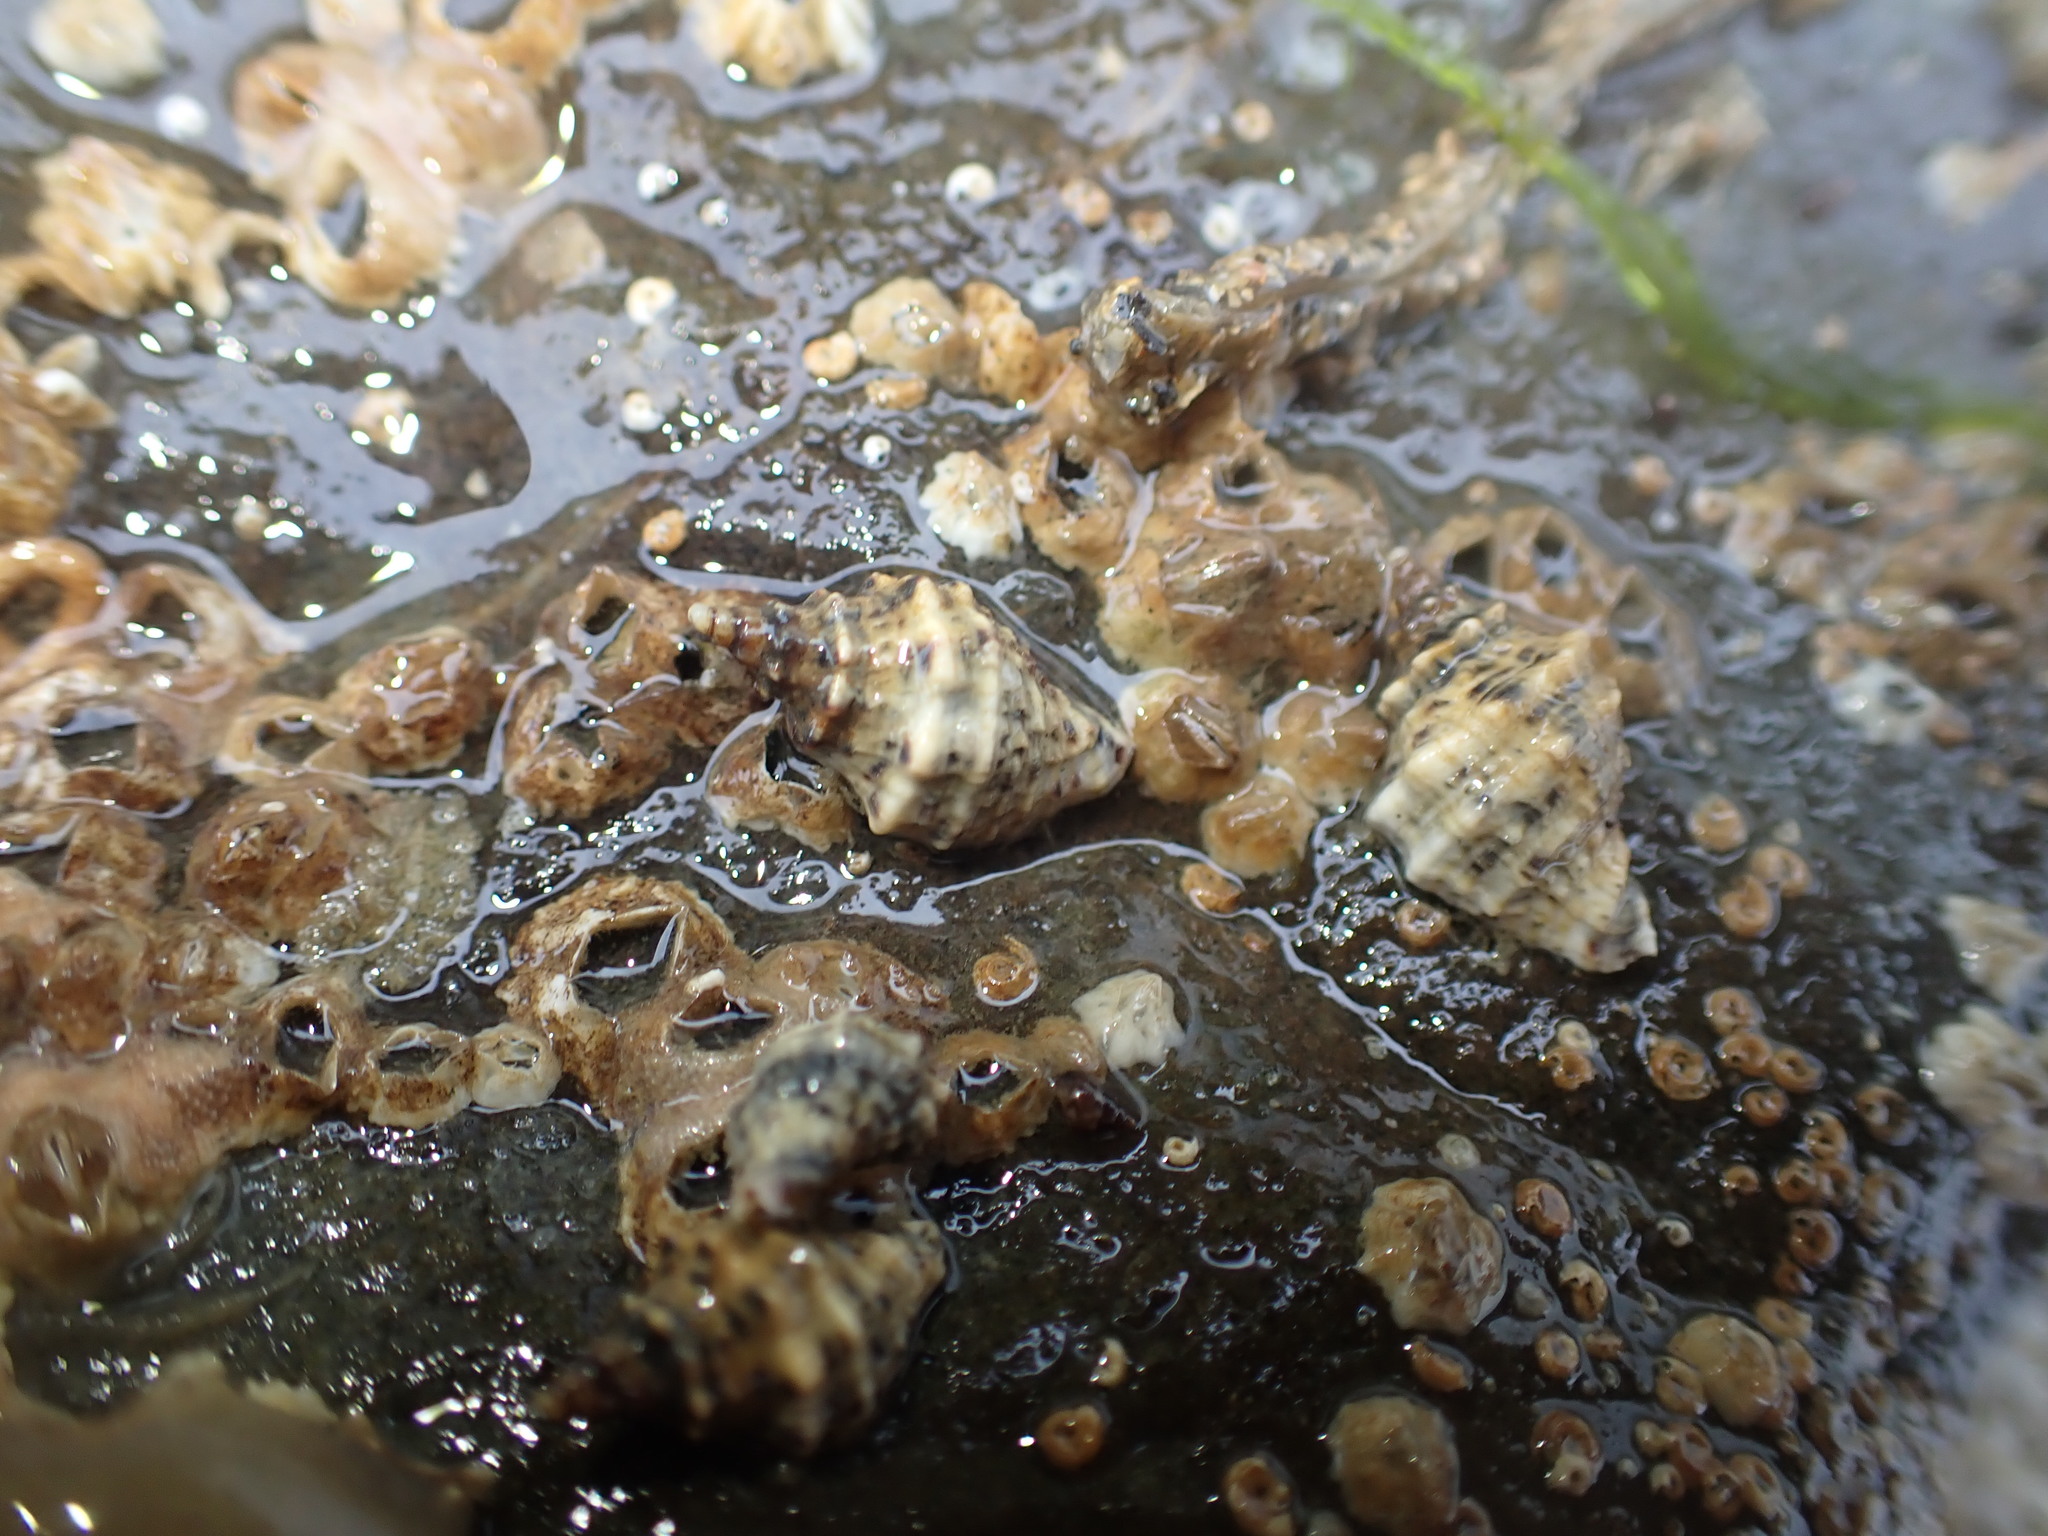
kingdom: Animalia
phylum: Mollusca
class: Gastropoda
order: Neogastropoda
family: Muricidae
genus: Haustrum
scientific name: Haustrum scobina
